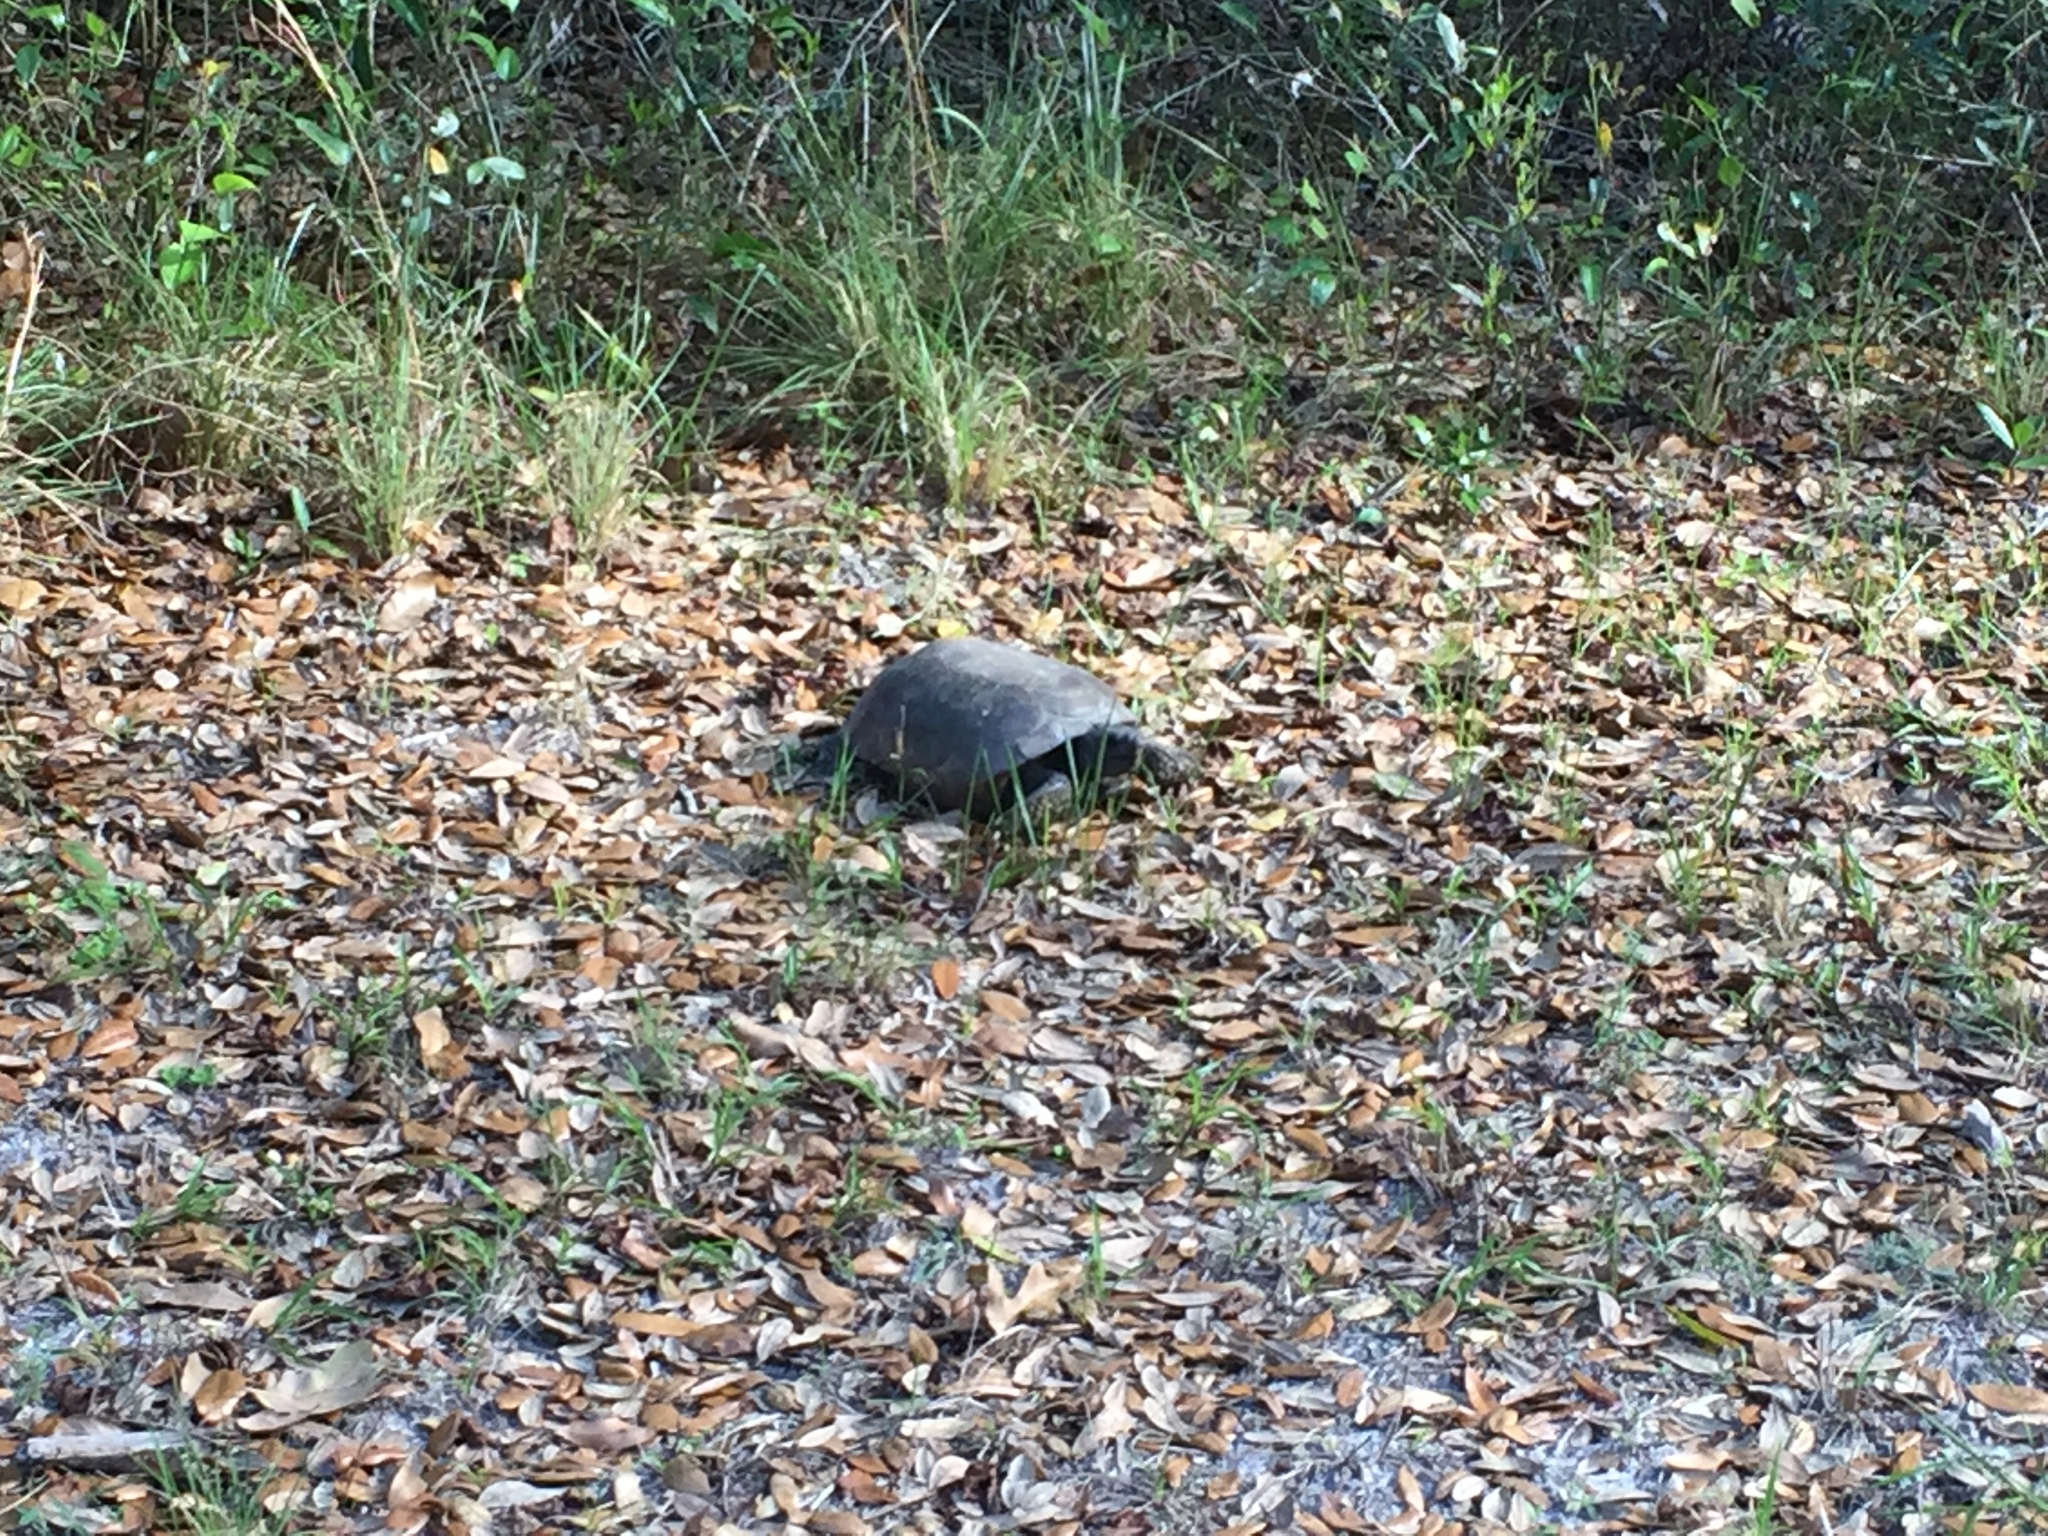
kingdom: Animalia
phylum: Chordata
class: Testudines
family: Testudinidae
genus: Gopherus
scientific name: Gopherus polyphemus
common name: Florida gopher tortoise
